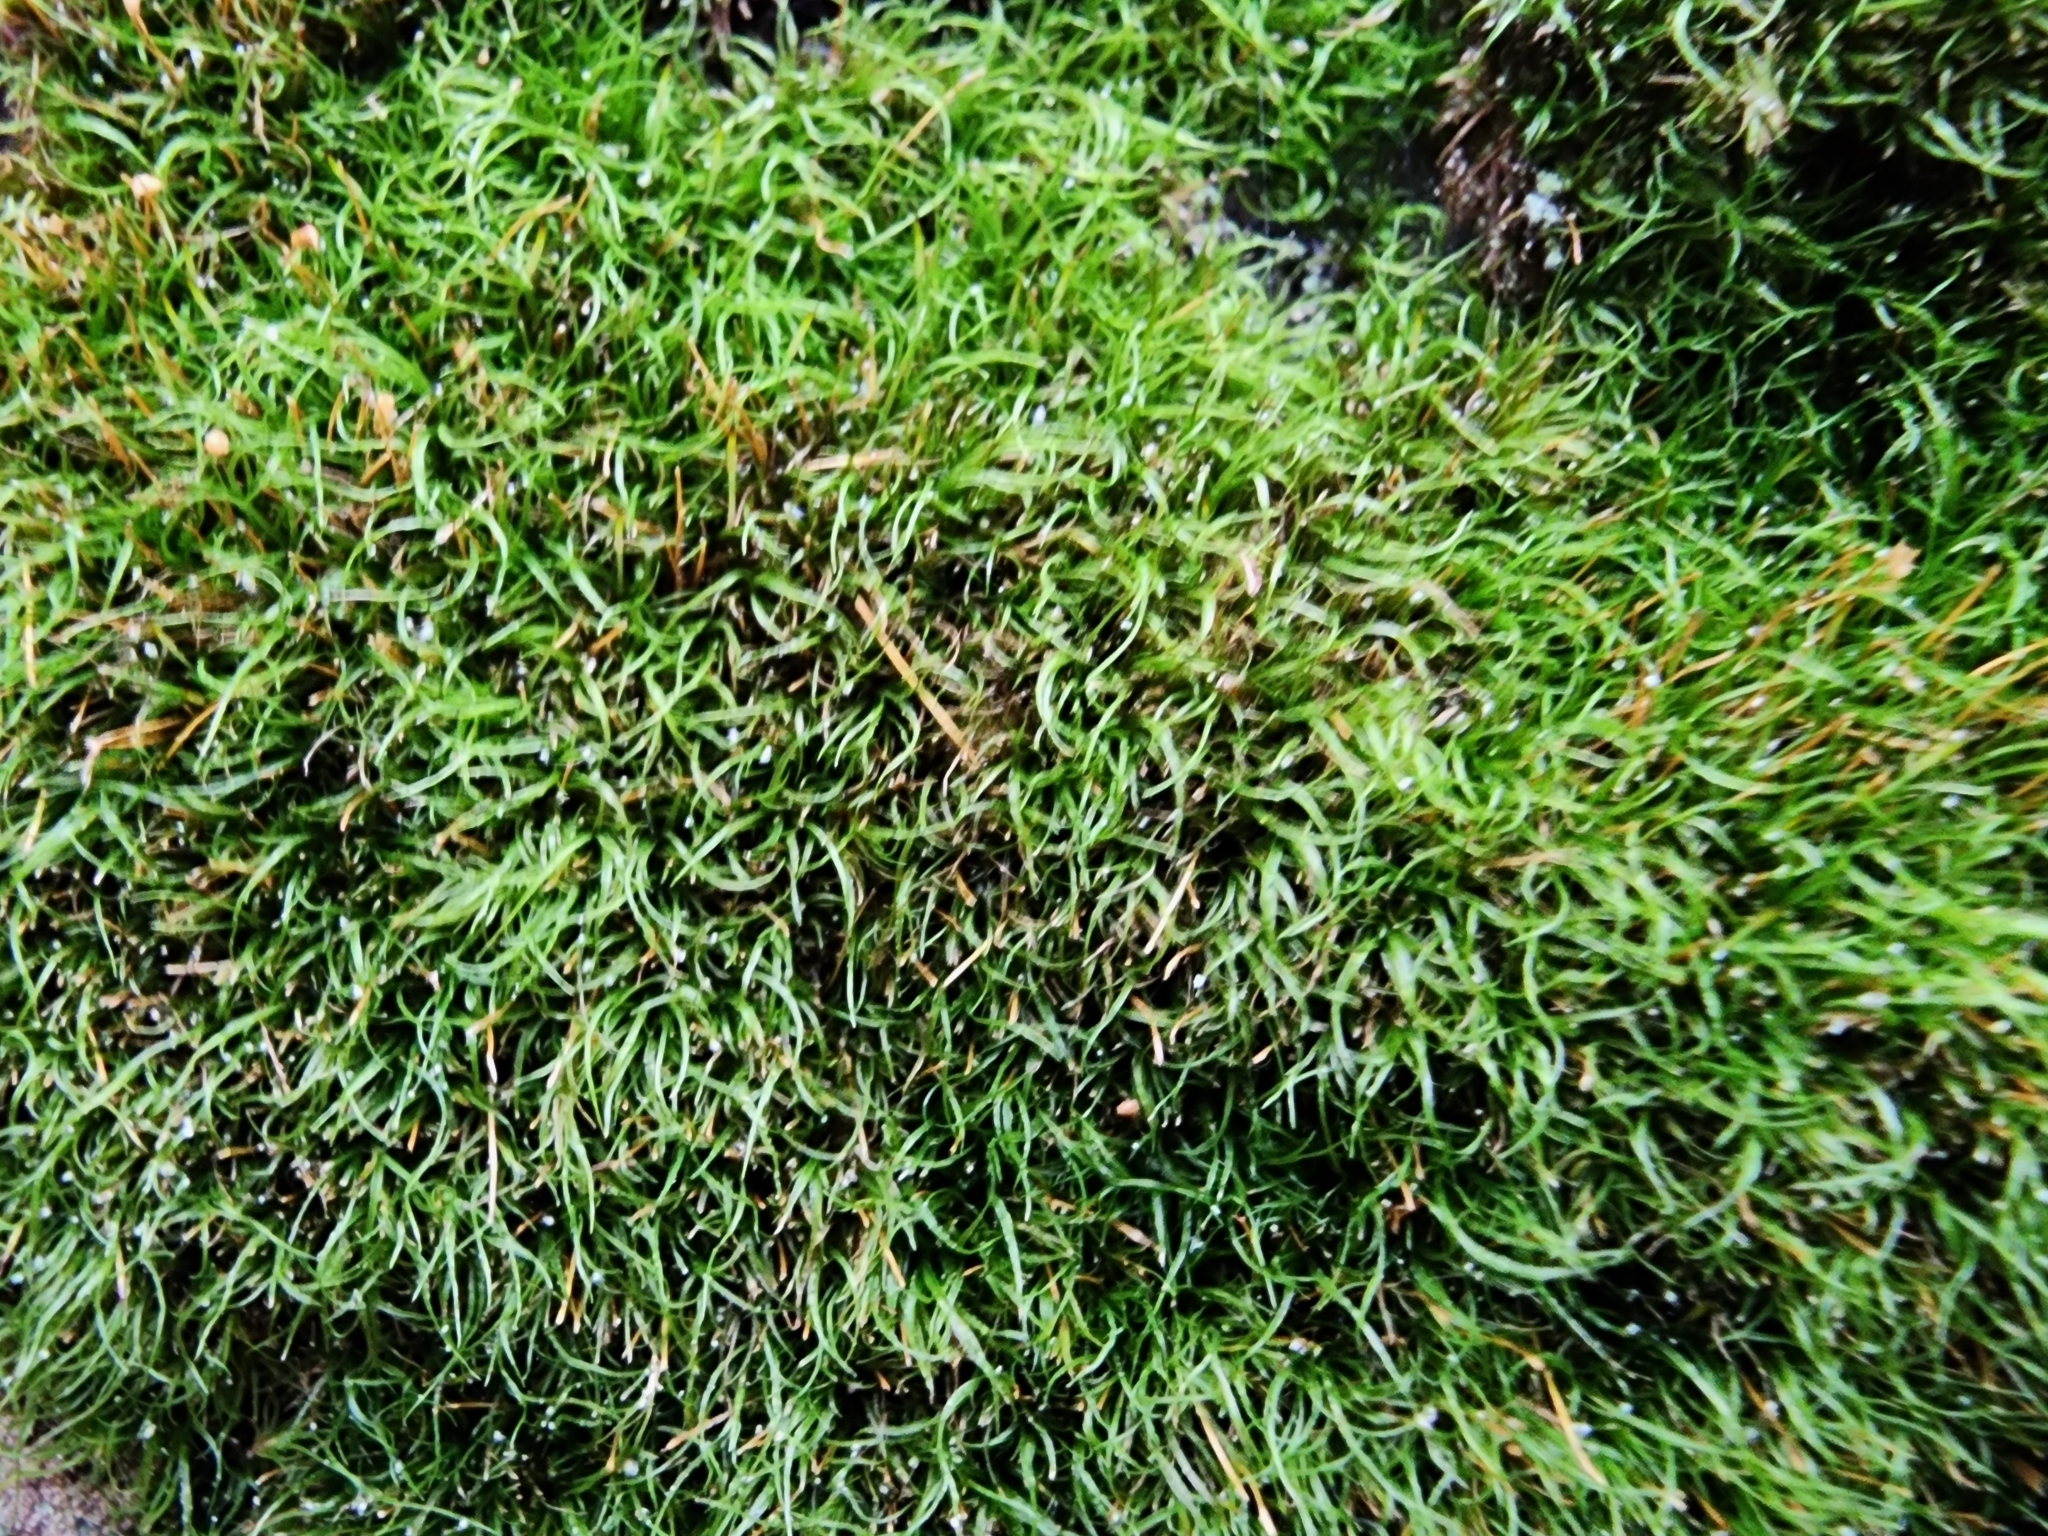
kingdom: Plantae
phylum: Bryophyta
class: Bryopsida
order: Orthodontiales
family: Orthodontiaceae
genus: Orthodontium
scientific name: Orthodontium lineare
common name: Cape thread-moss
